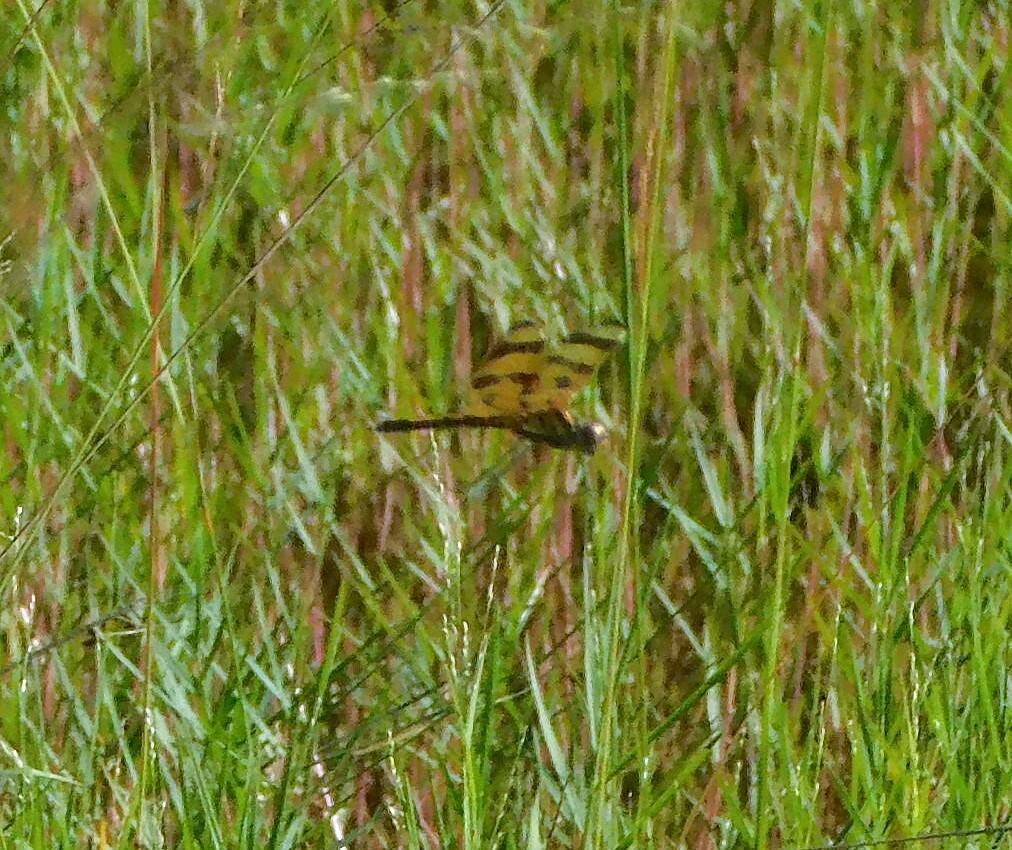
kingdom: Animalia
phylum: Arthropoda
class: Insecta
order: Odonata
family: Libellulidae
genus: Celithemis
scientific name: Celithemis eponina
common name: Halloween pennant
